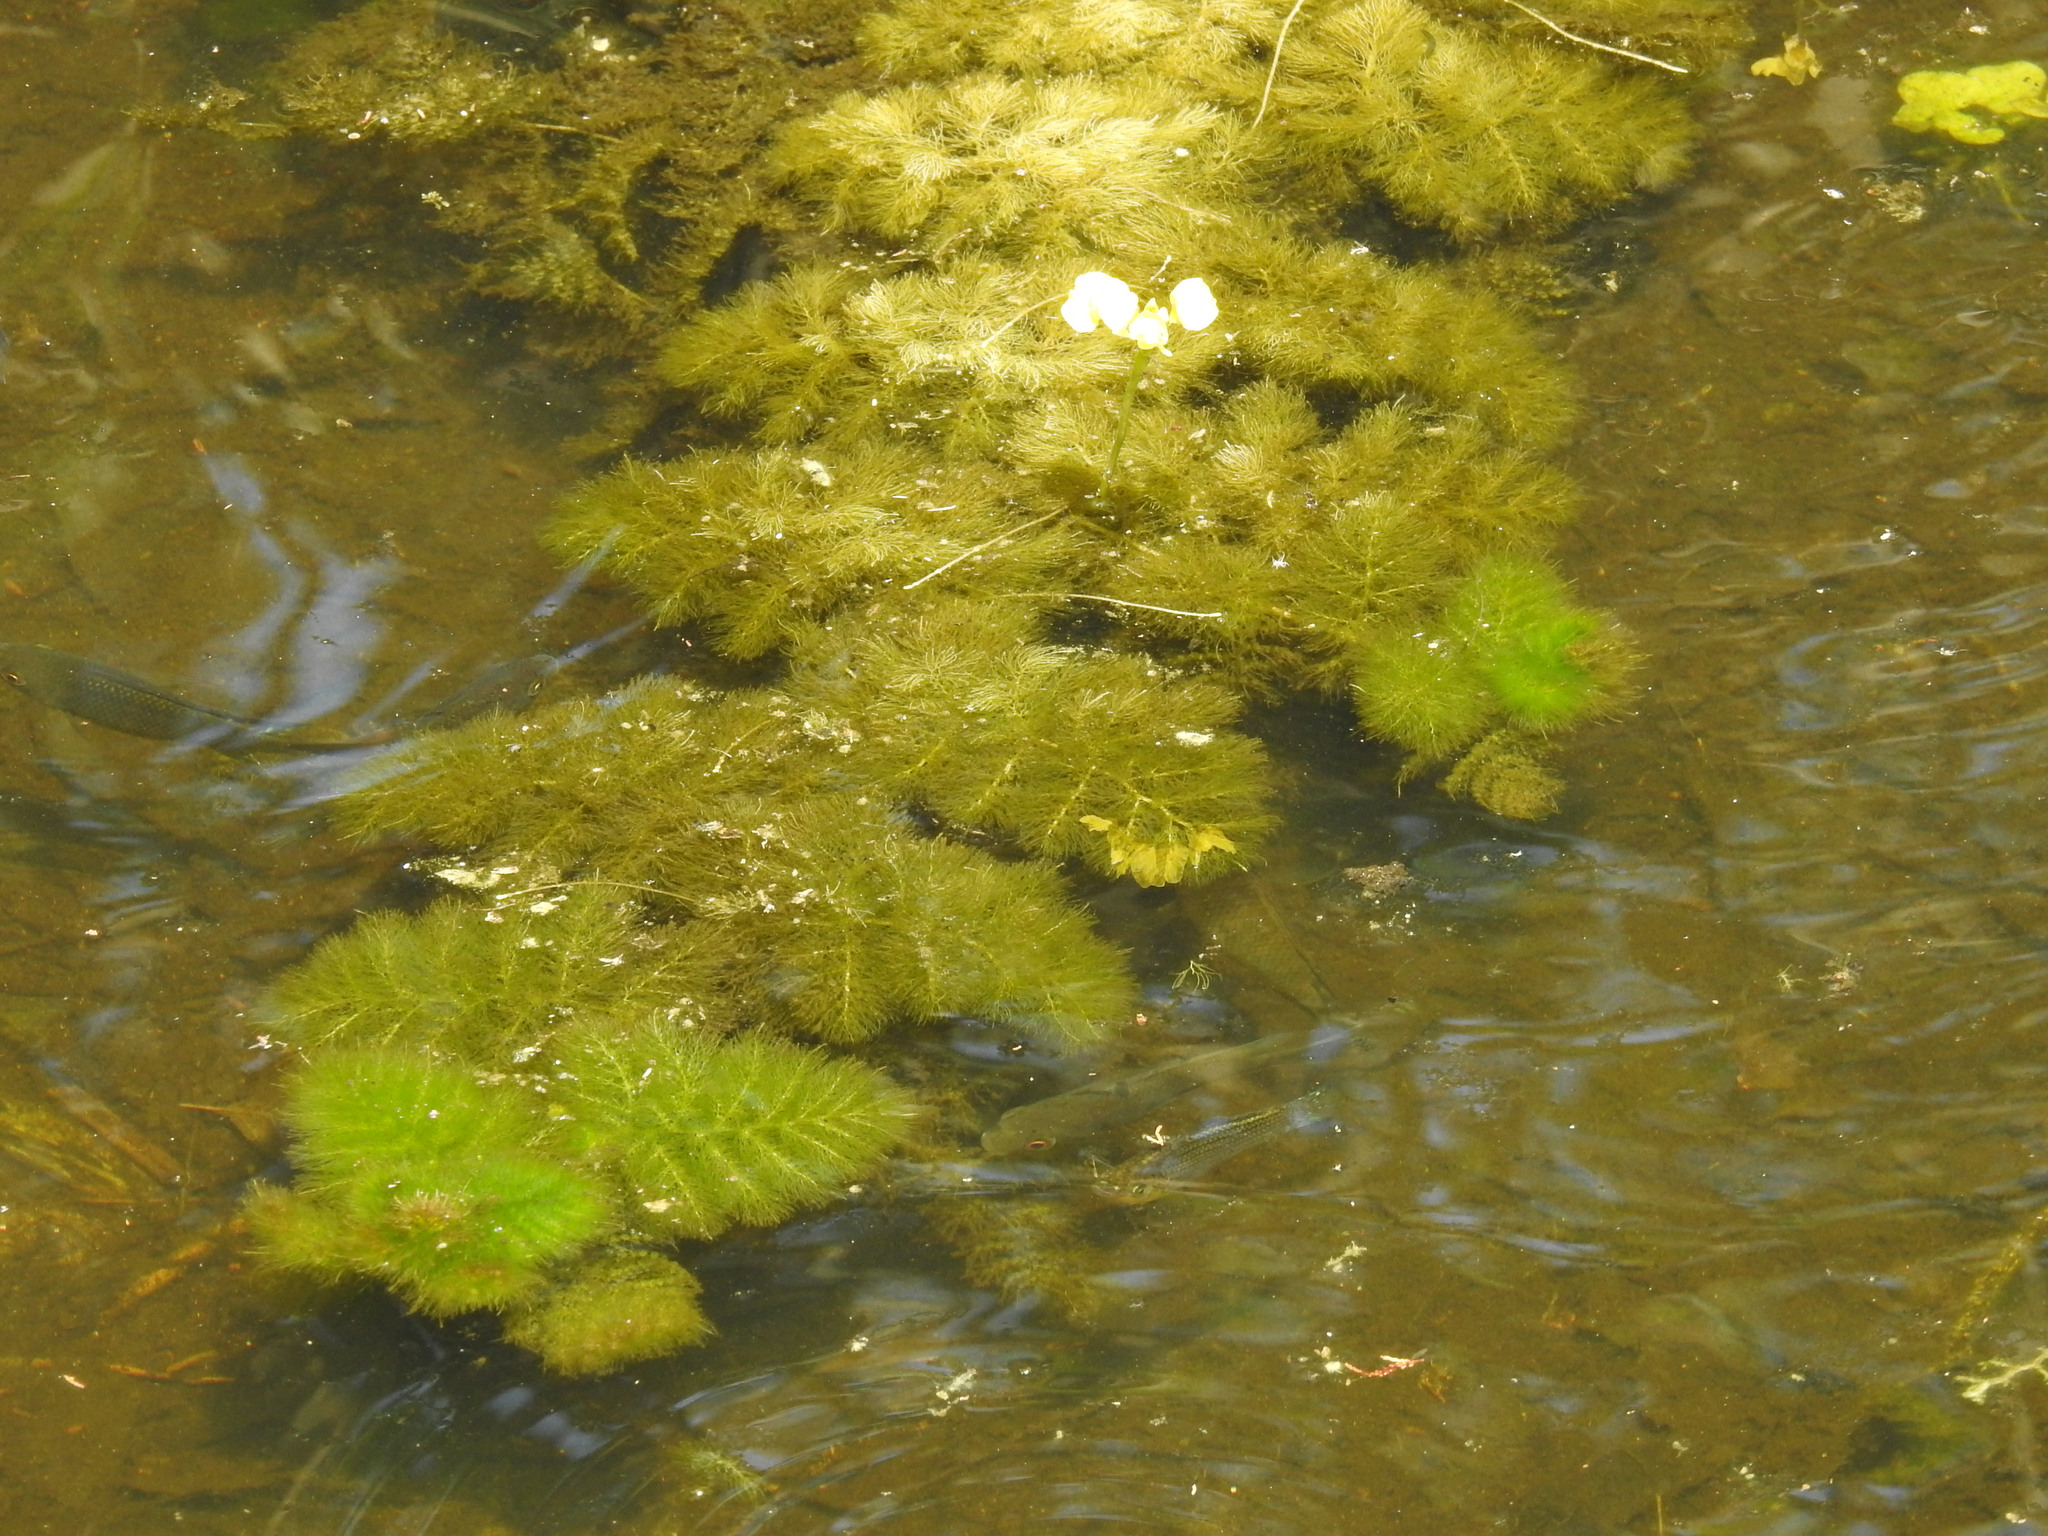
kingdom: Plantae
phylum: Tracheophyta
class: Magnoliopsida
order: Lamiales
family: Lentibulariaceae
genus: Utricularia
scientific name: Utricularia foliosa
